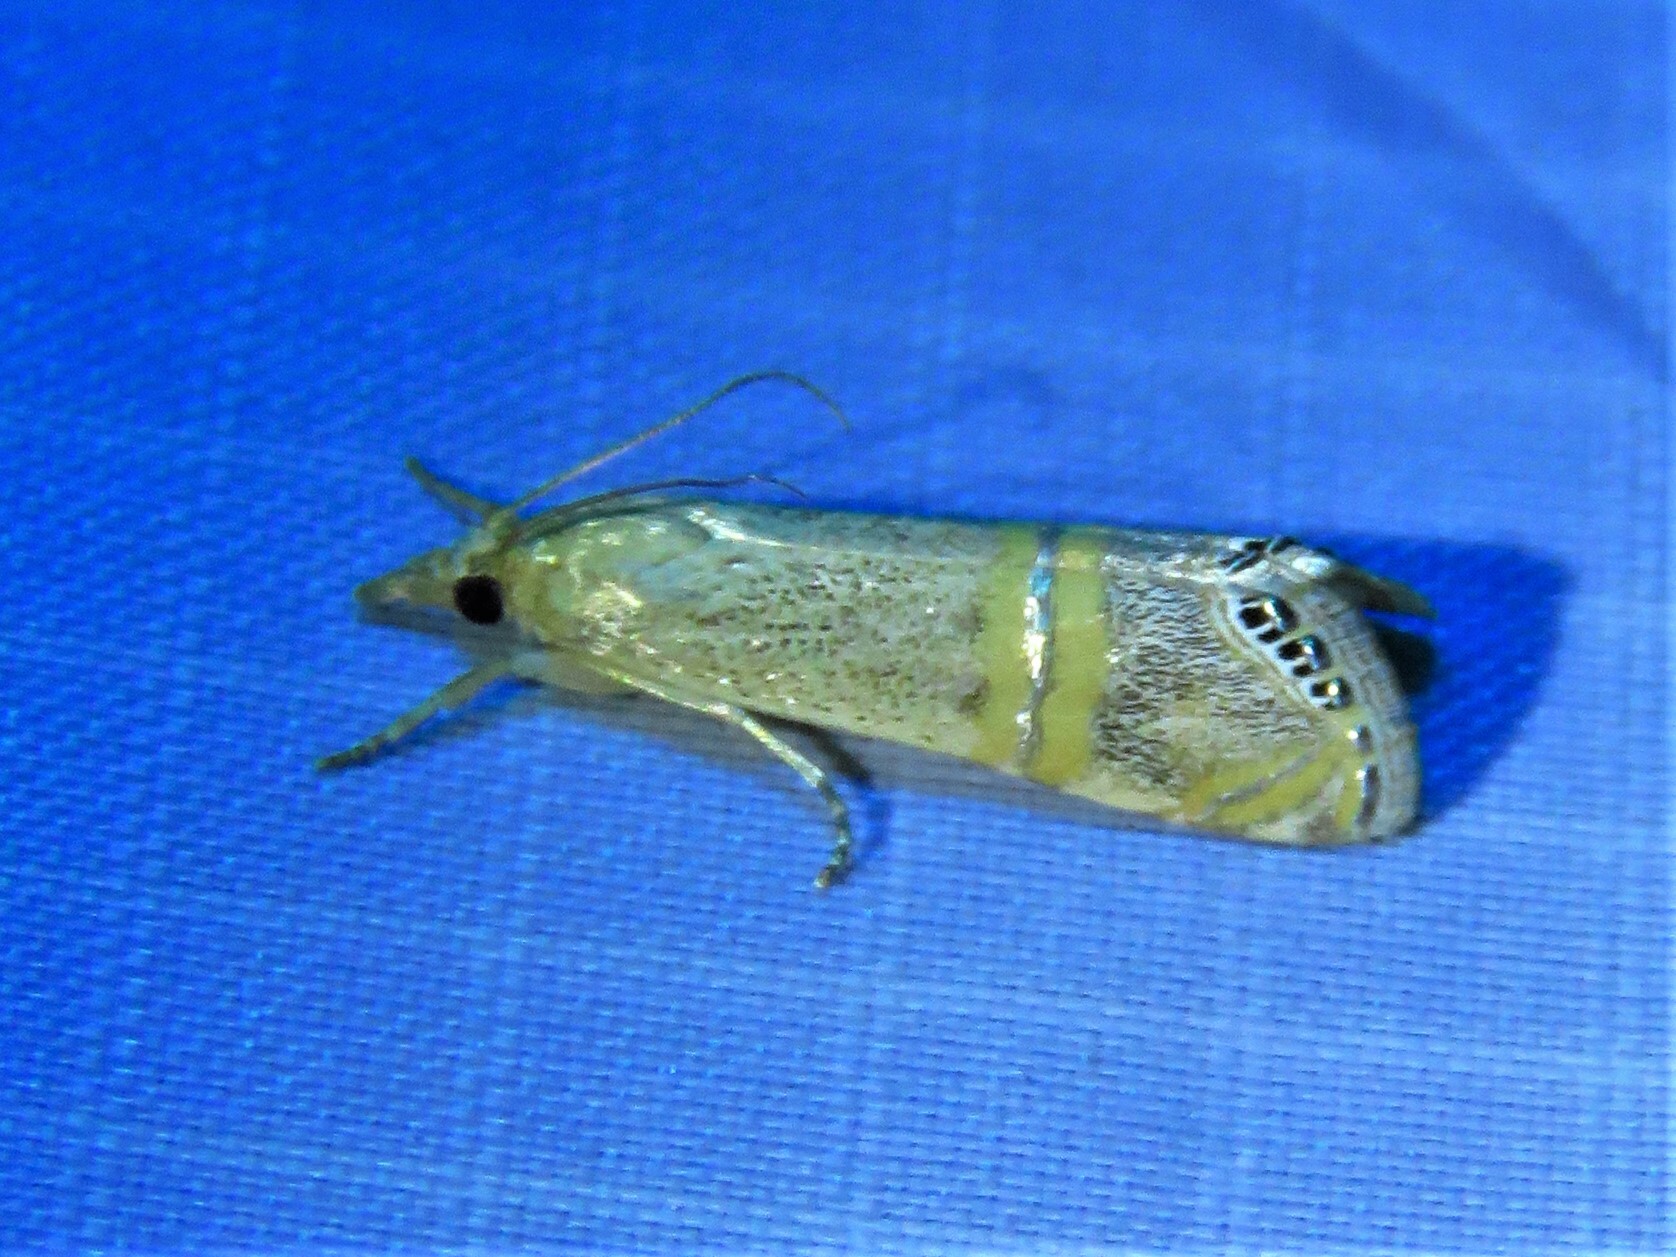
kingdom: Animalia
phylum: Arthropoda
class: Insecta
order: Lepidoptera
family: Crambidae
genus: Euchromius
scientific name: Euchromius ocellea
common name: Necklace veneer moth
